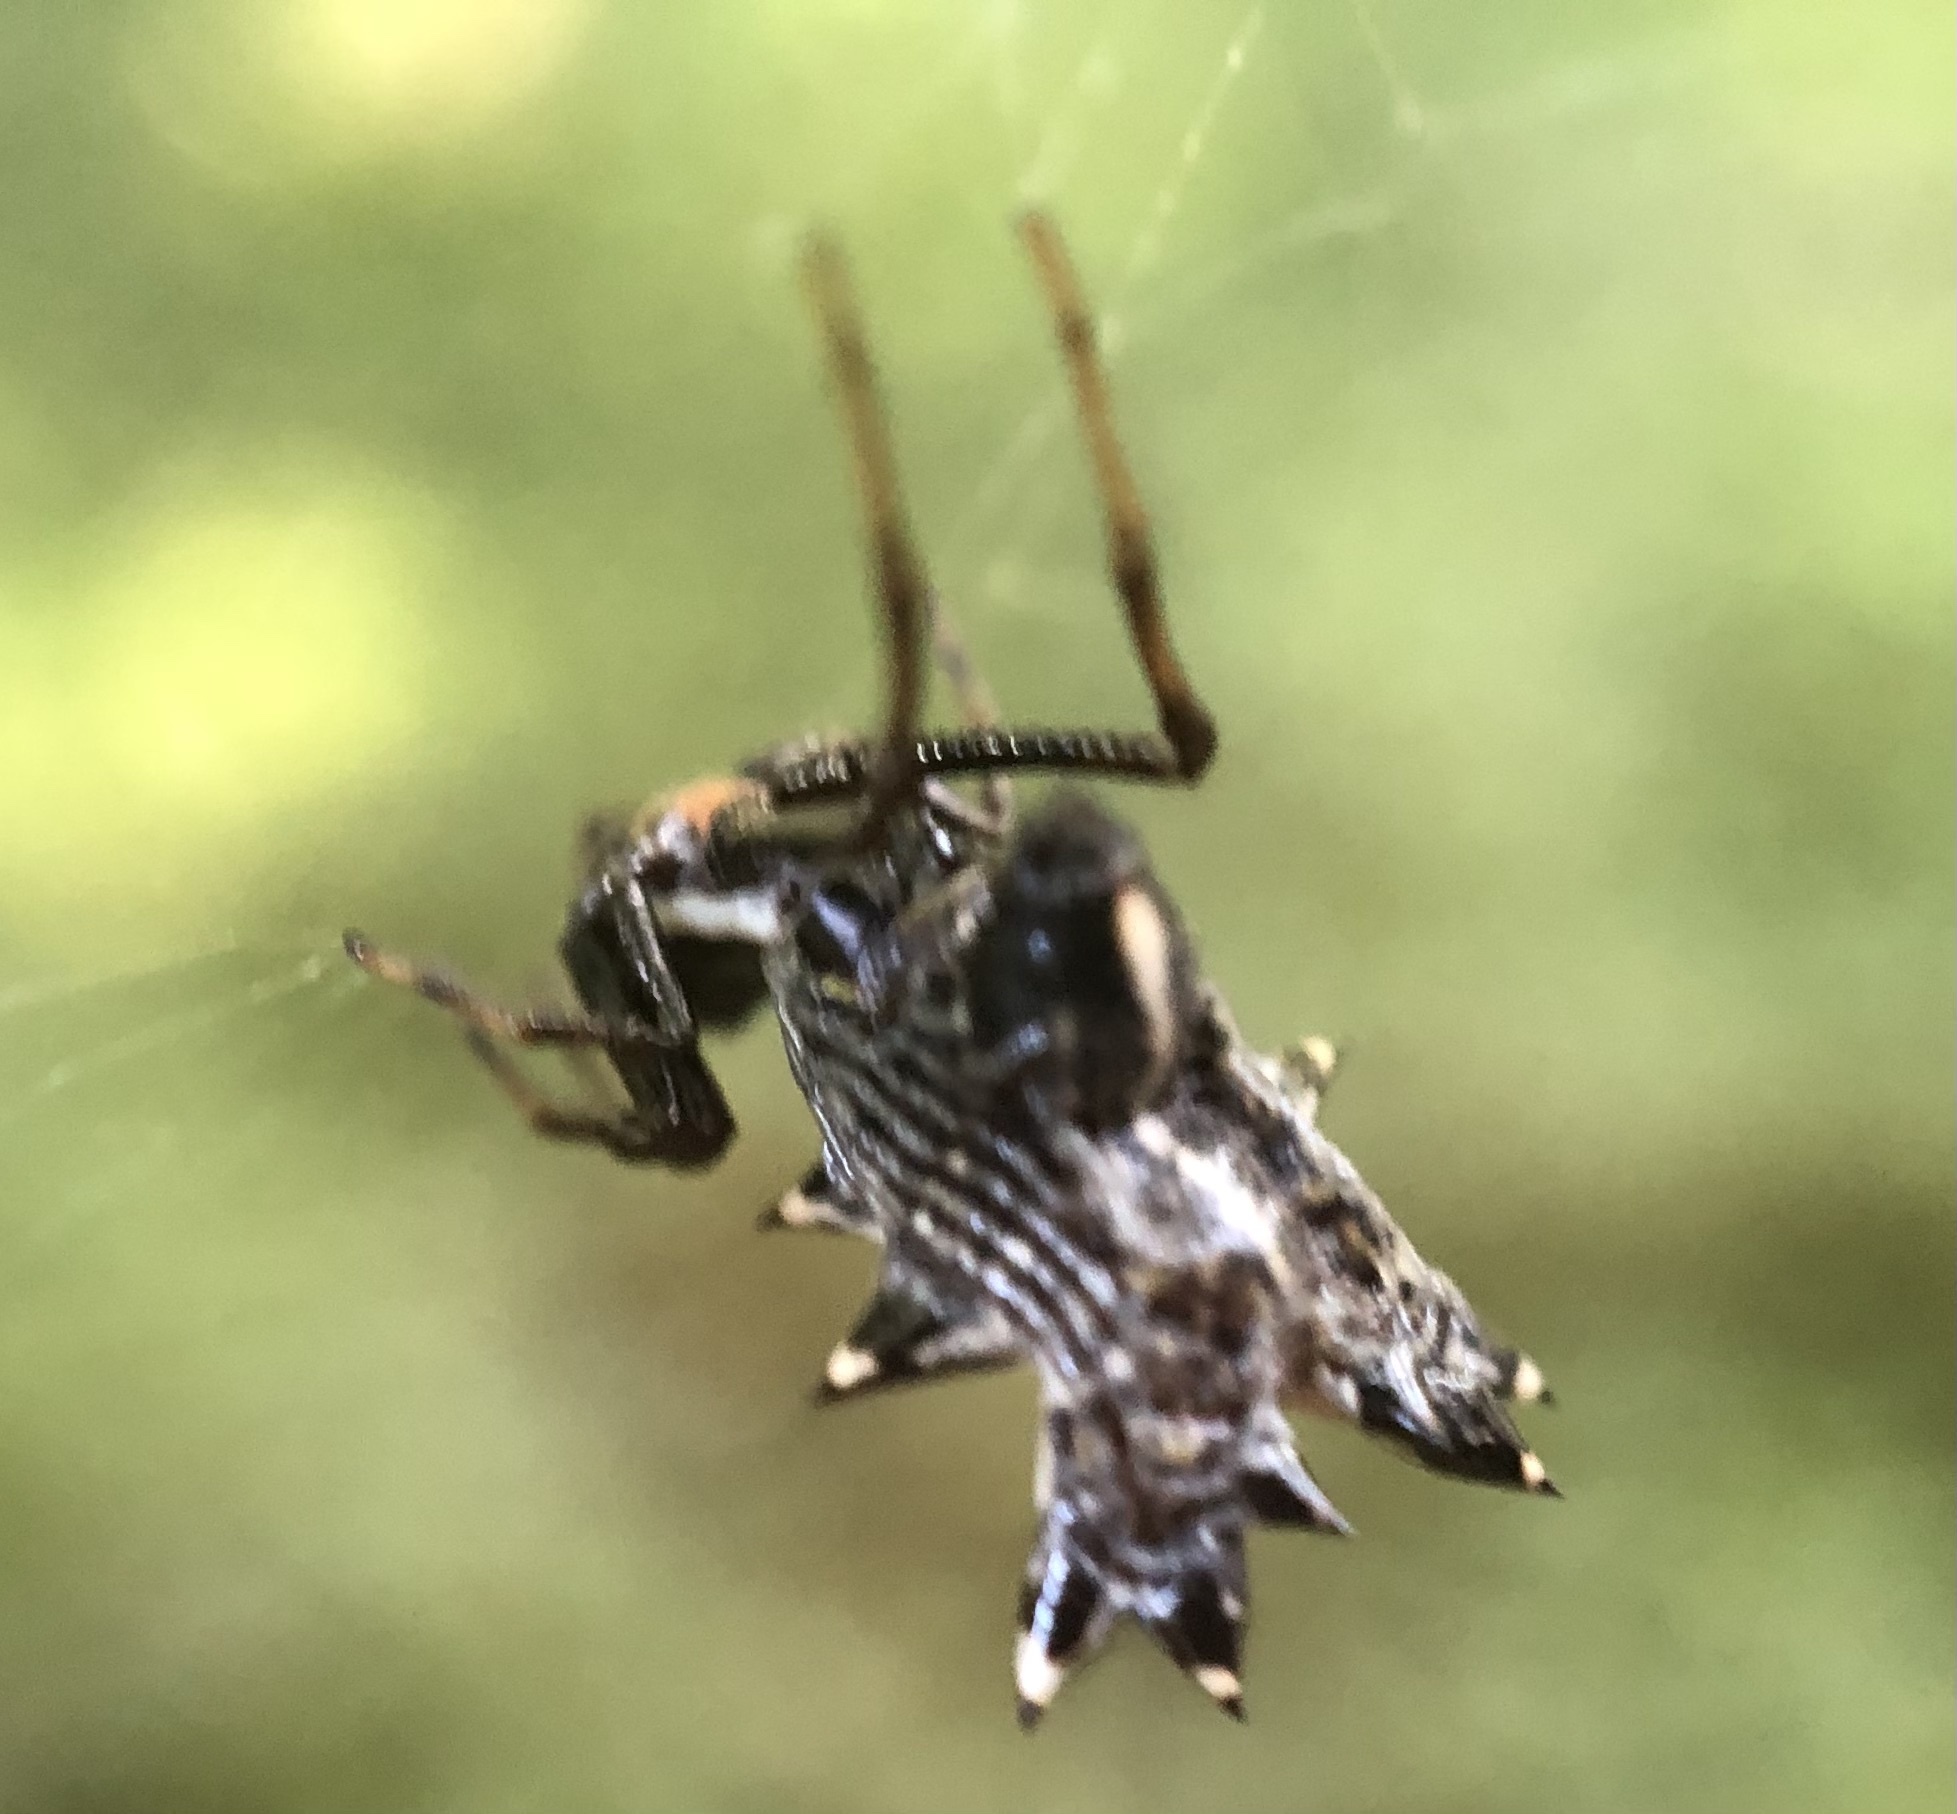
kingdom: Animalia
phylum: Arthropoda
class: Arachnida
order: Araneae
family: Araneidae
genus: Micrathena
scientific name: Micrathena gracilis
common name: Orb weavers
